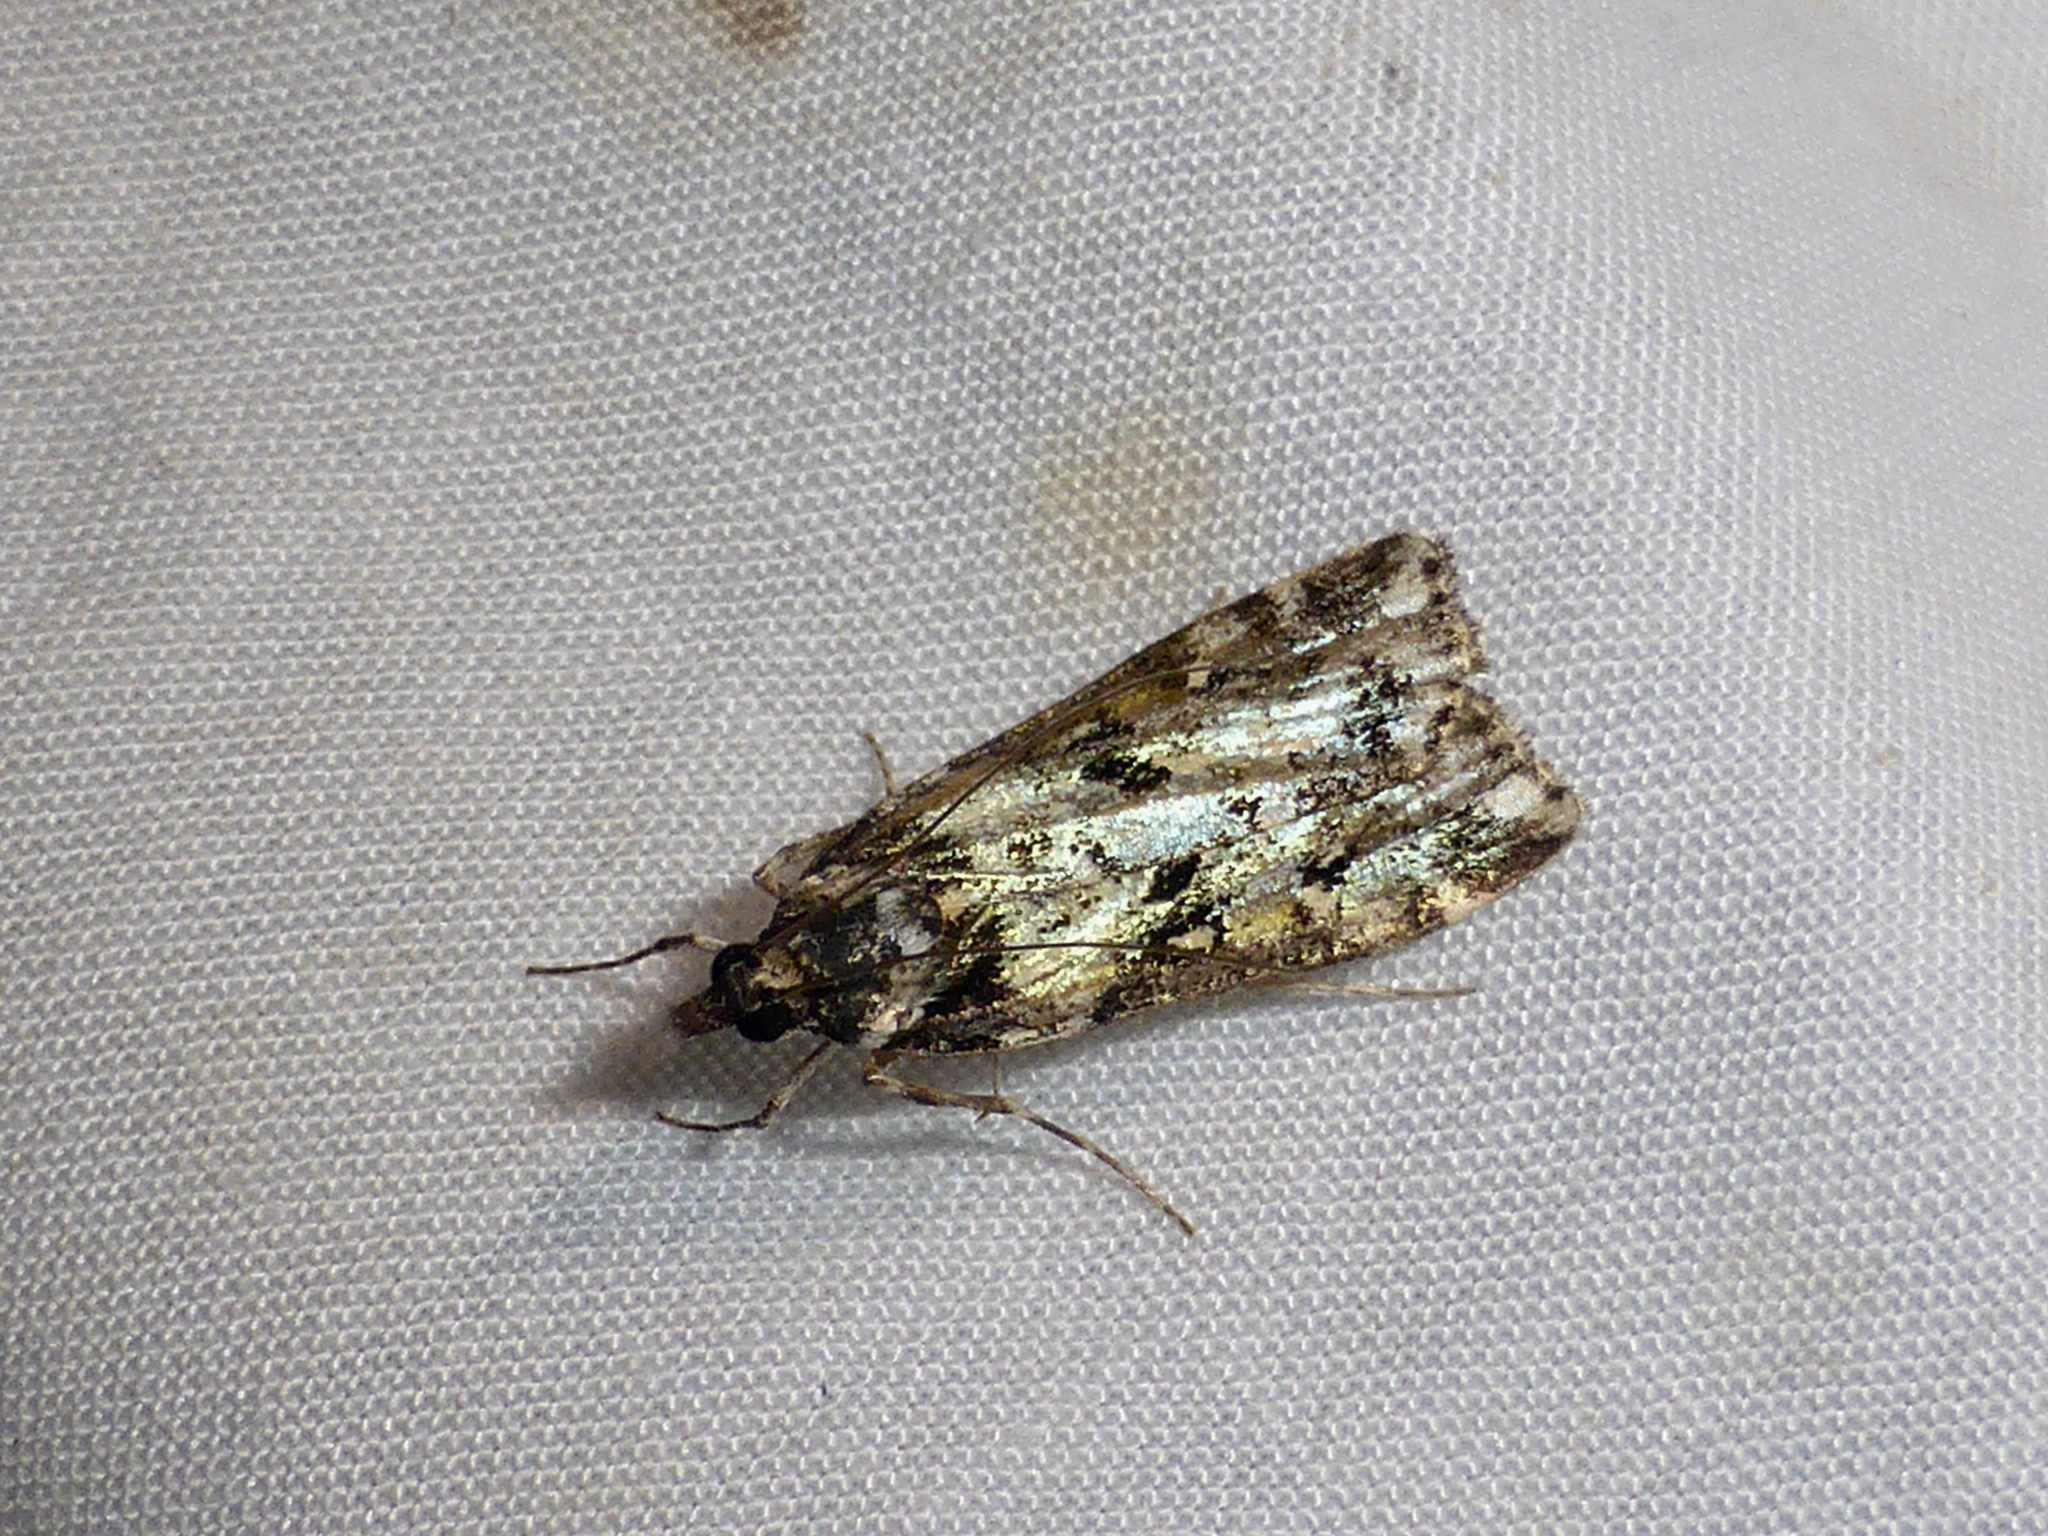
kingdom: Animalia
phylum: Arthropoda
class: Insecta
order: Lepidoptera
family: Crambidae
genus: Eudonia
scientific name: Eudonia diphtheralis
